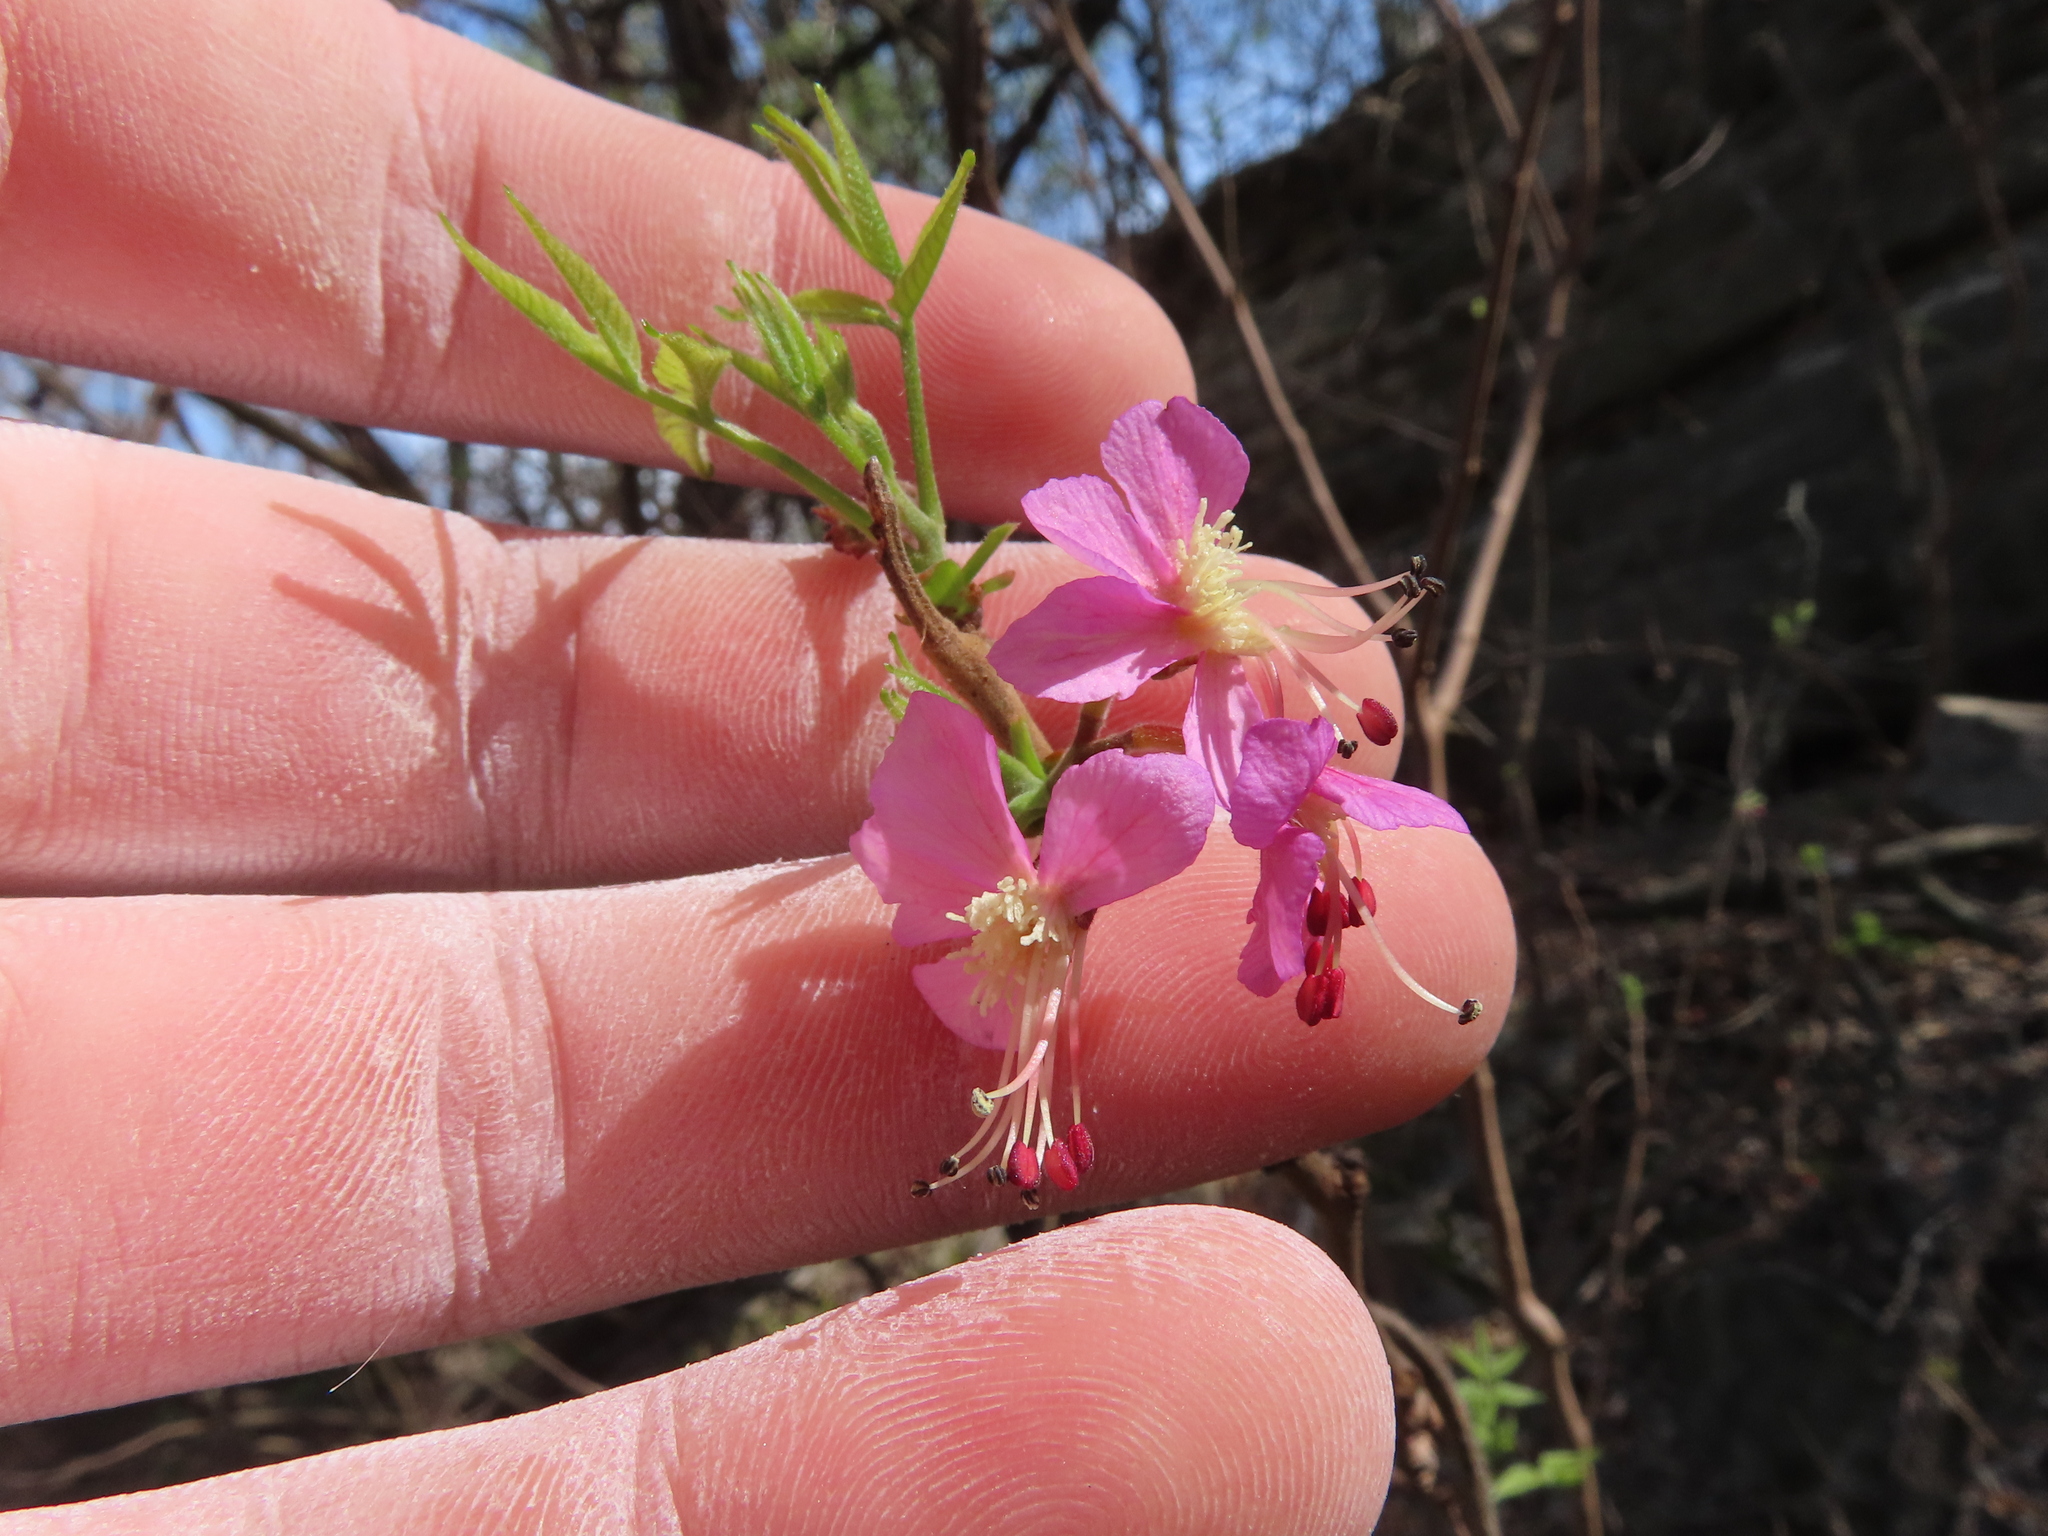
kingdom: Plantae
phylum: Tracheophyta
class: Magnoliopsida
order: Sapindales
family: Sapindaceae
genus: Ungnadia
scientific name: Ungnadia speciosa
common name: Texas-buckeye
